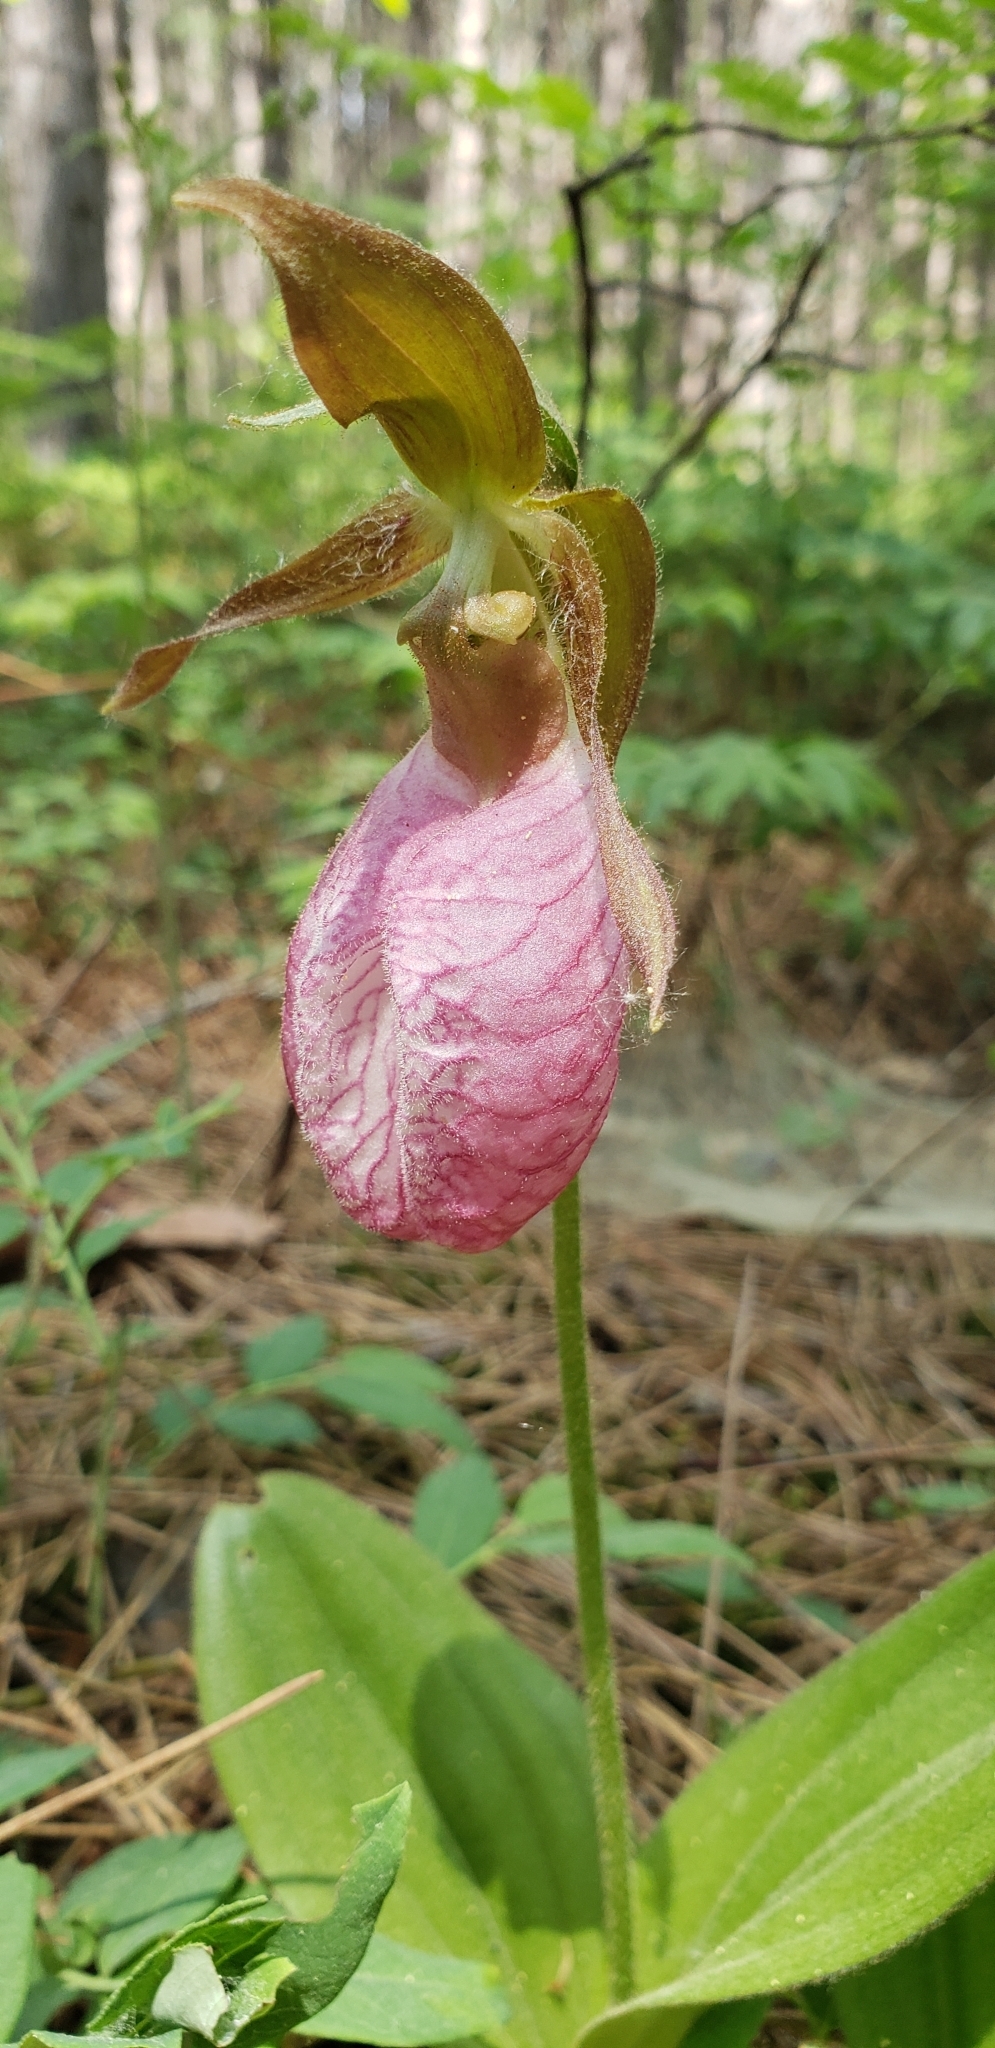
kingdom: Plantae
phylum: Tracheophyta
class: Liliopsida
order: Asparagales
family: Orchidaceae
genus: Cypripedium
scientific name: Cypripedium acaule
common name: Pink lady's-slipper
